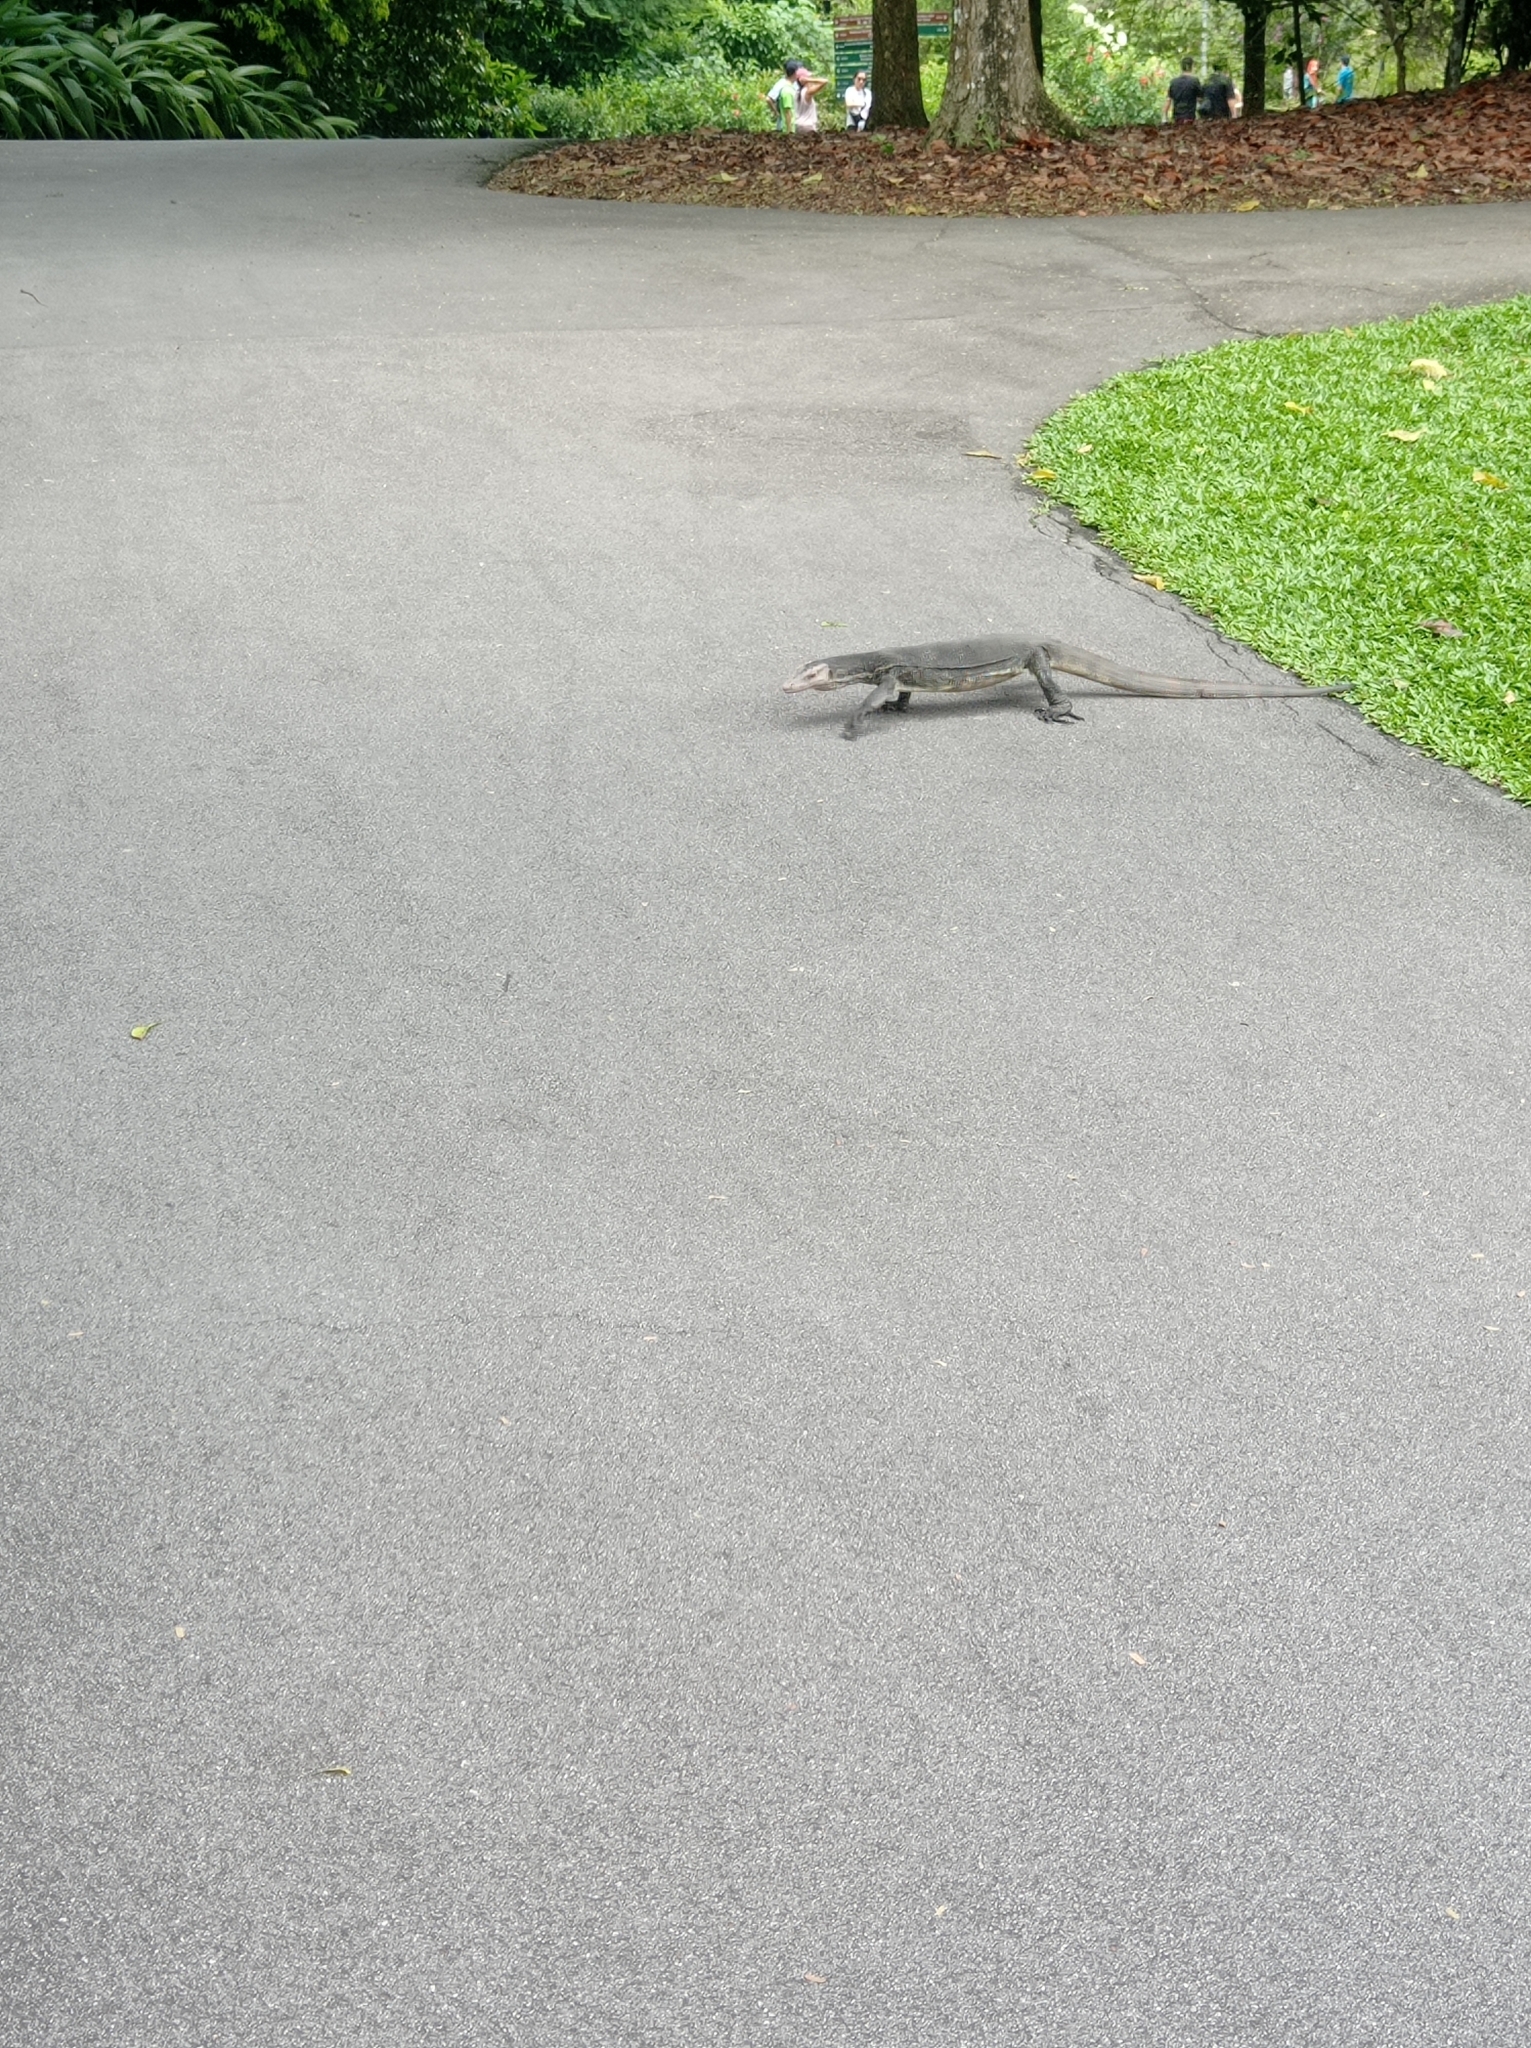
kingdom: Animalia
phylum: Chordata
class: Squamata
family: Varanidae
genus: Varanus
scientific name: Varanus salvator
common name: Common water monitor
